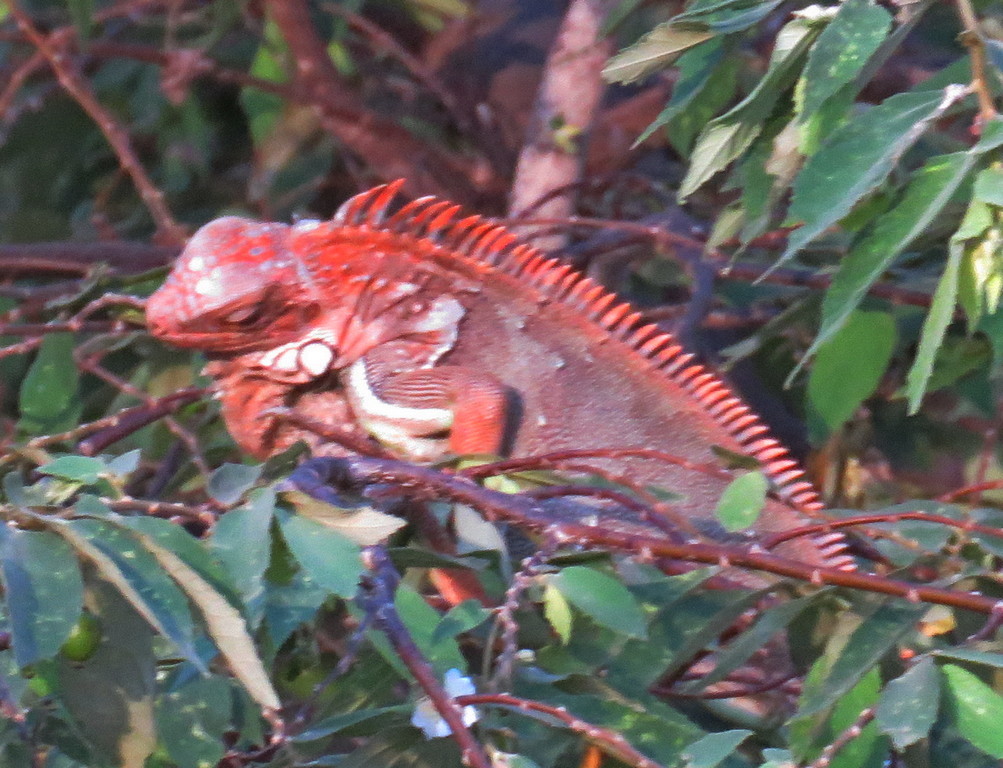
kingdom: Animalia
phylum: Chordata
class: Squamata
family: Iguanidae
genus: Iguana
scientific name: Iguana iguana
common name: Green iguana
